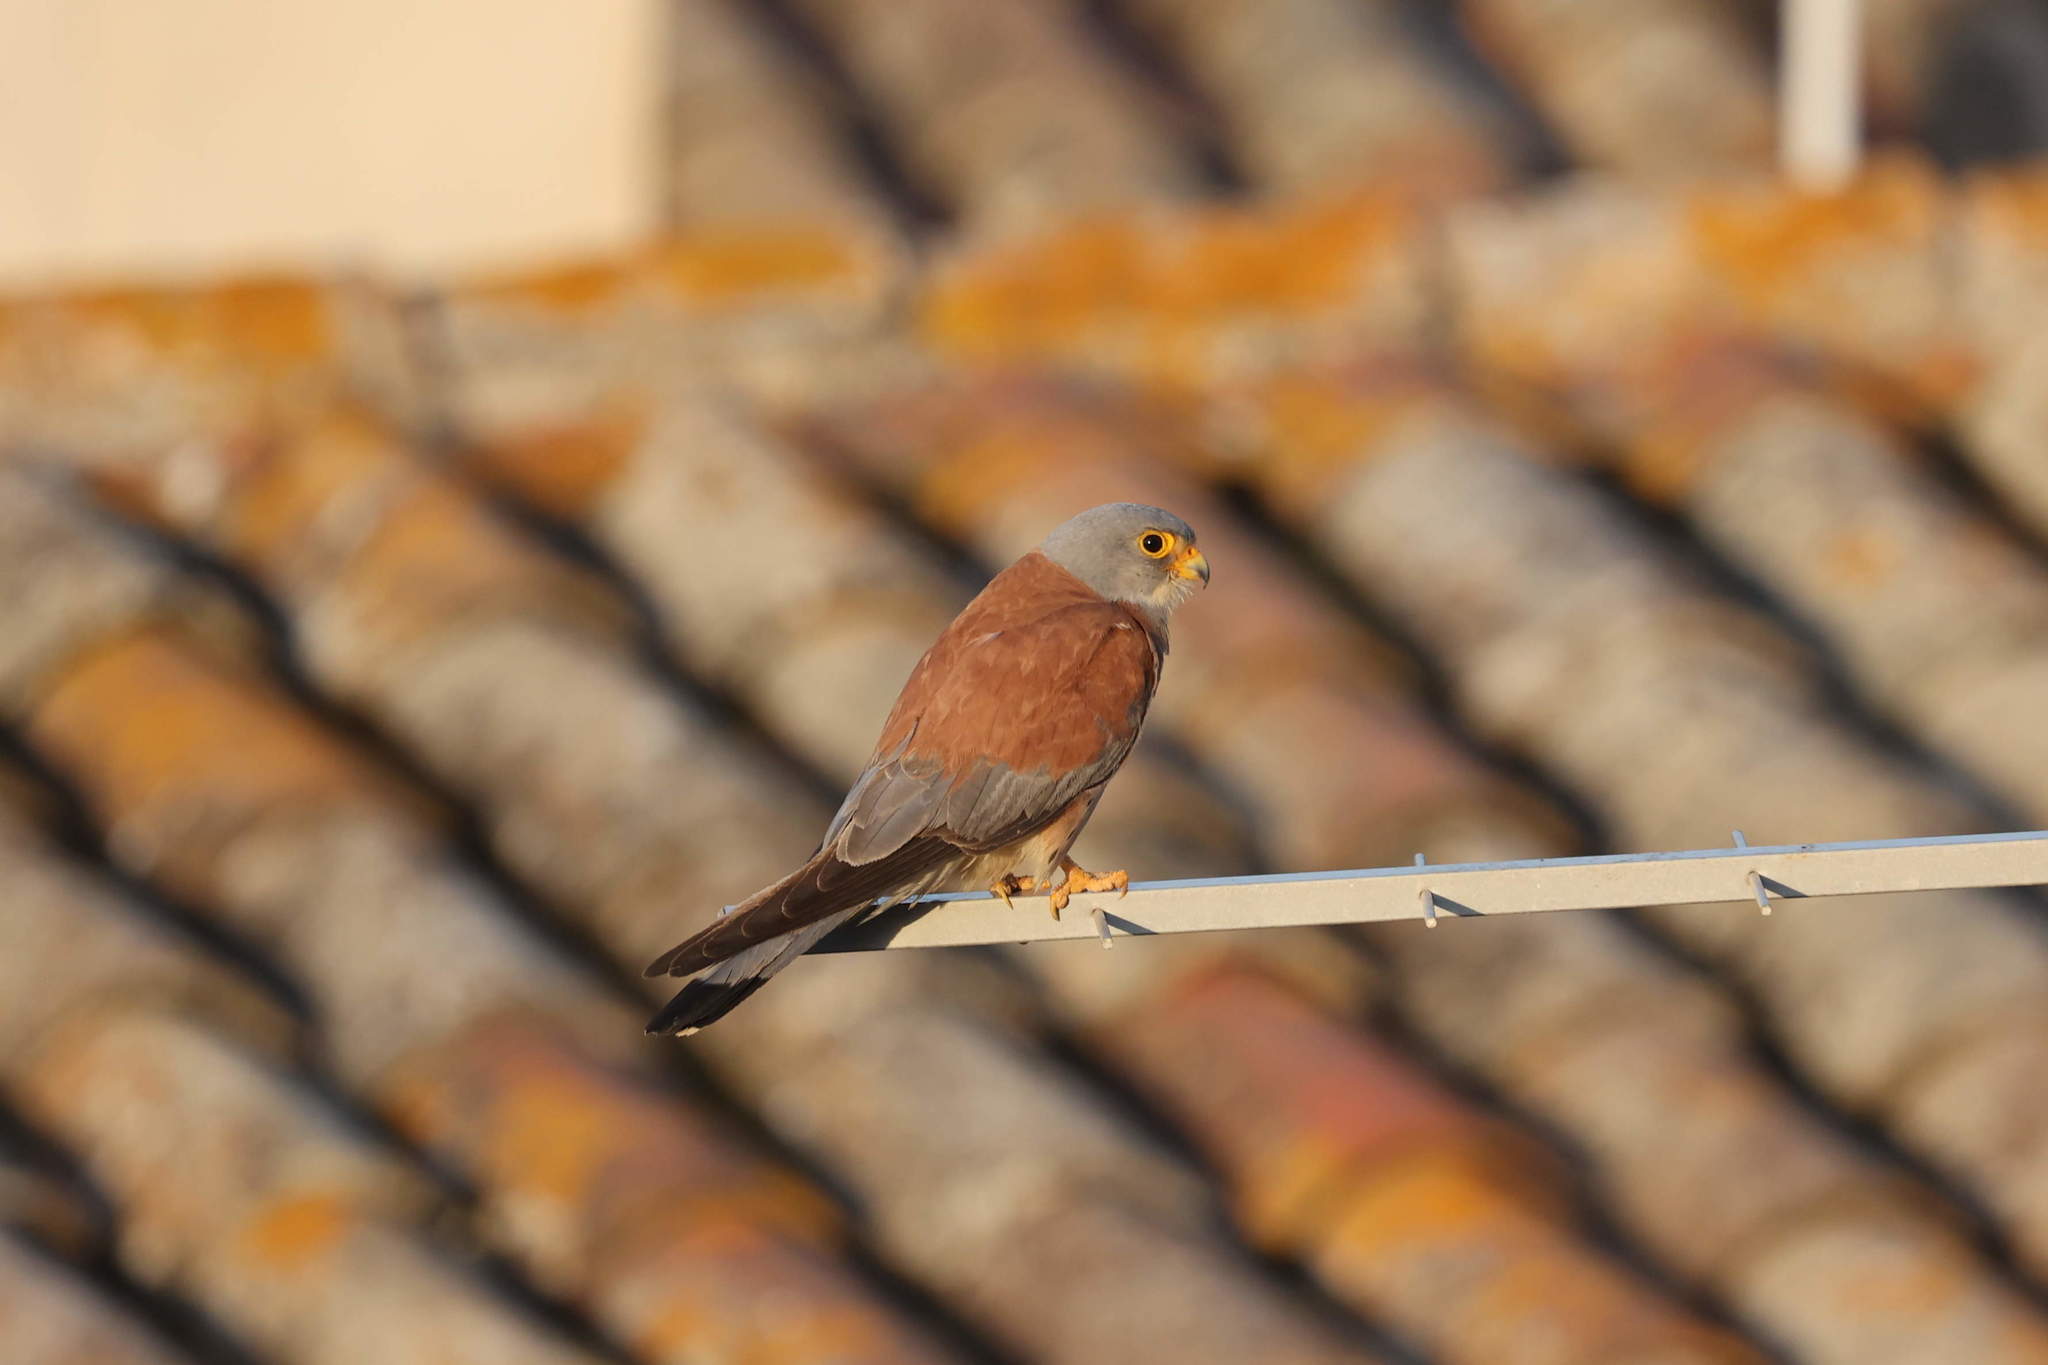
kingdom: Animalia
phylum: Chordata
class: Aves
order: Falconiformes
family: Falconidae
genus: Falco
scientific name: Falco naumanni
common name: Lesser kestrel
